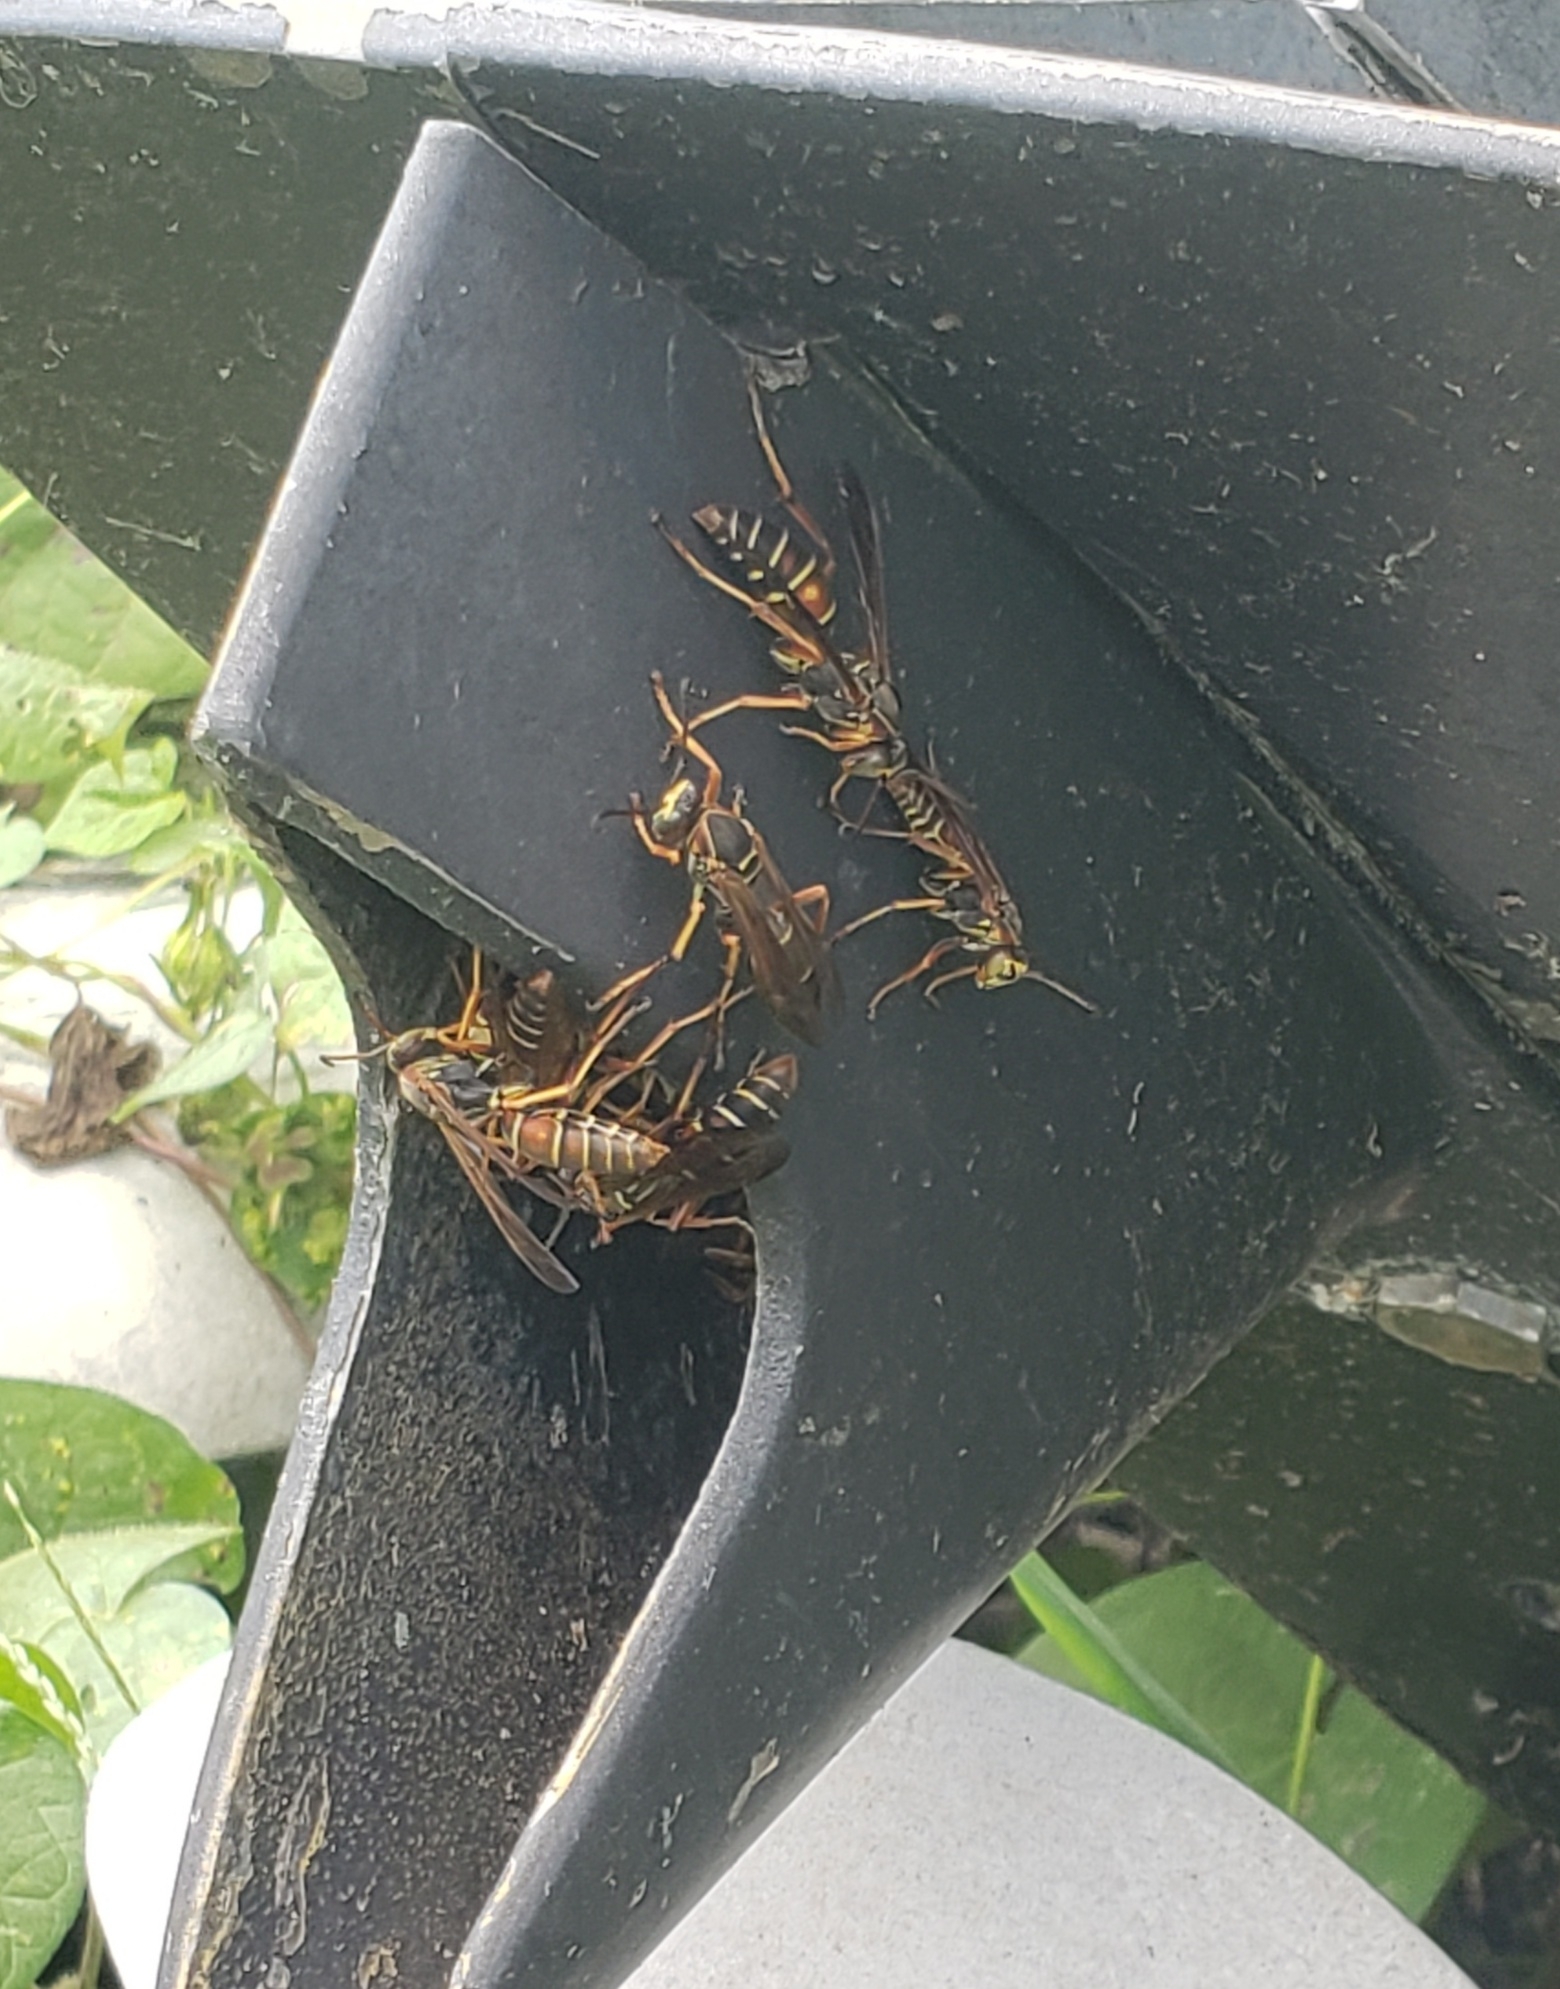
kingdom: Animalia
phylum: Arthropoda
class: Insecta
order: Hymenoptera
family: Eumenidae
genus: Polistes
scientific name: Polistes fuscatus
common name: Dark paper wasp
